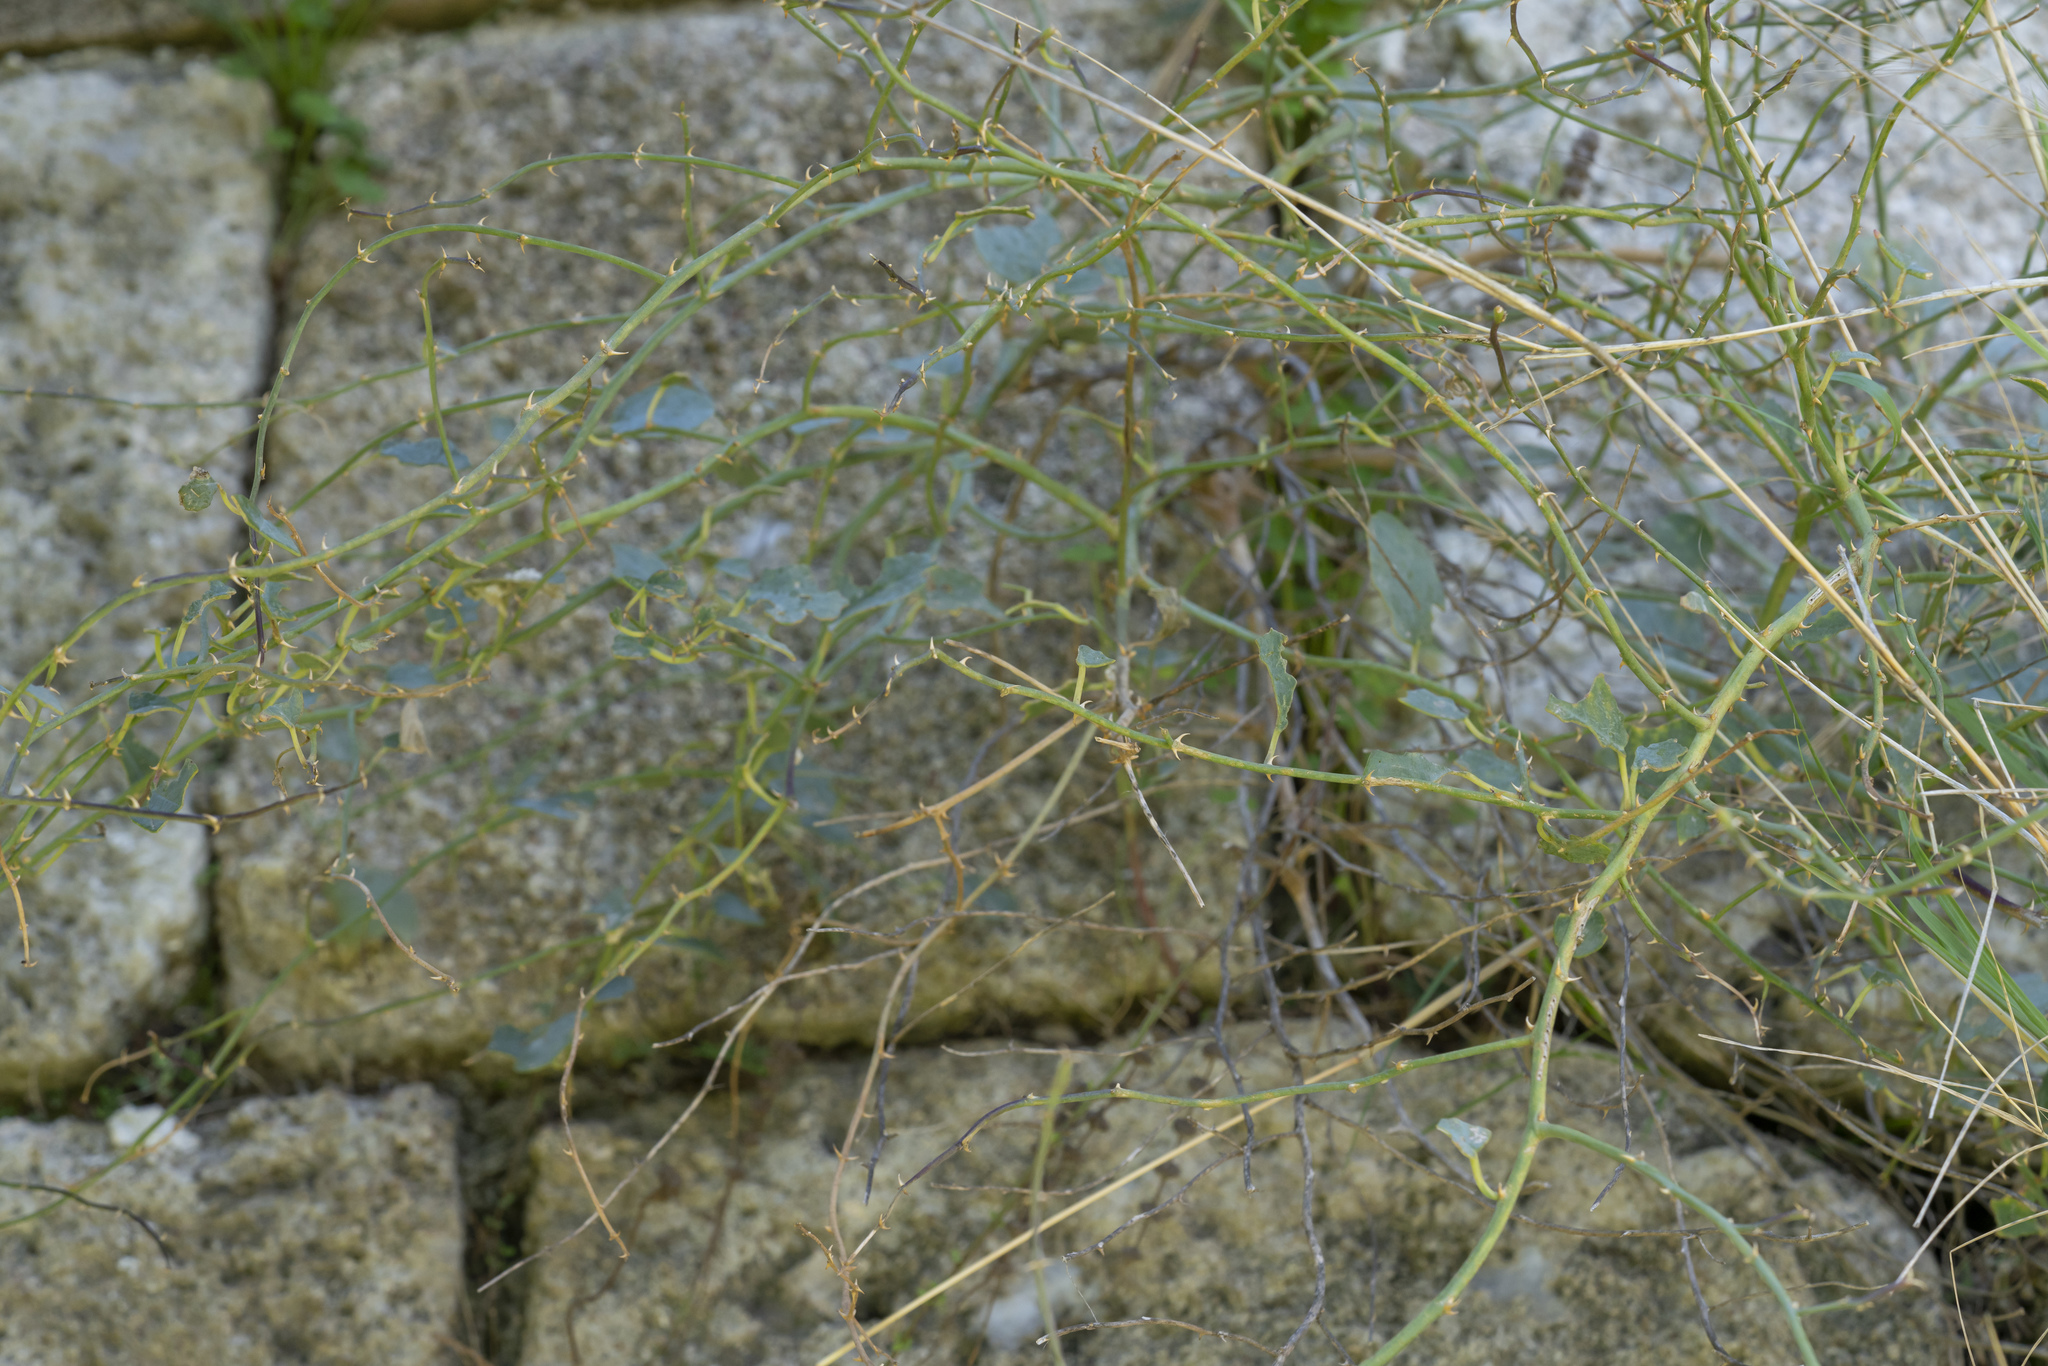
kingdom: Plantae
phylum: Tracheophyta
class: Magnoliopsida
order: Brassicales
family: Capparaceae
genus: Capparis
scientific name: Capparis spinosa
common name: Caper
